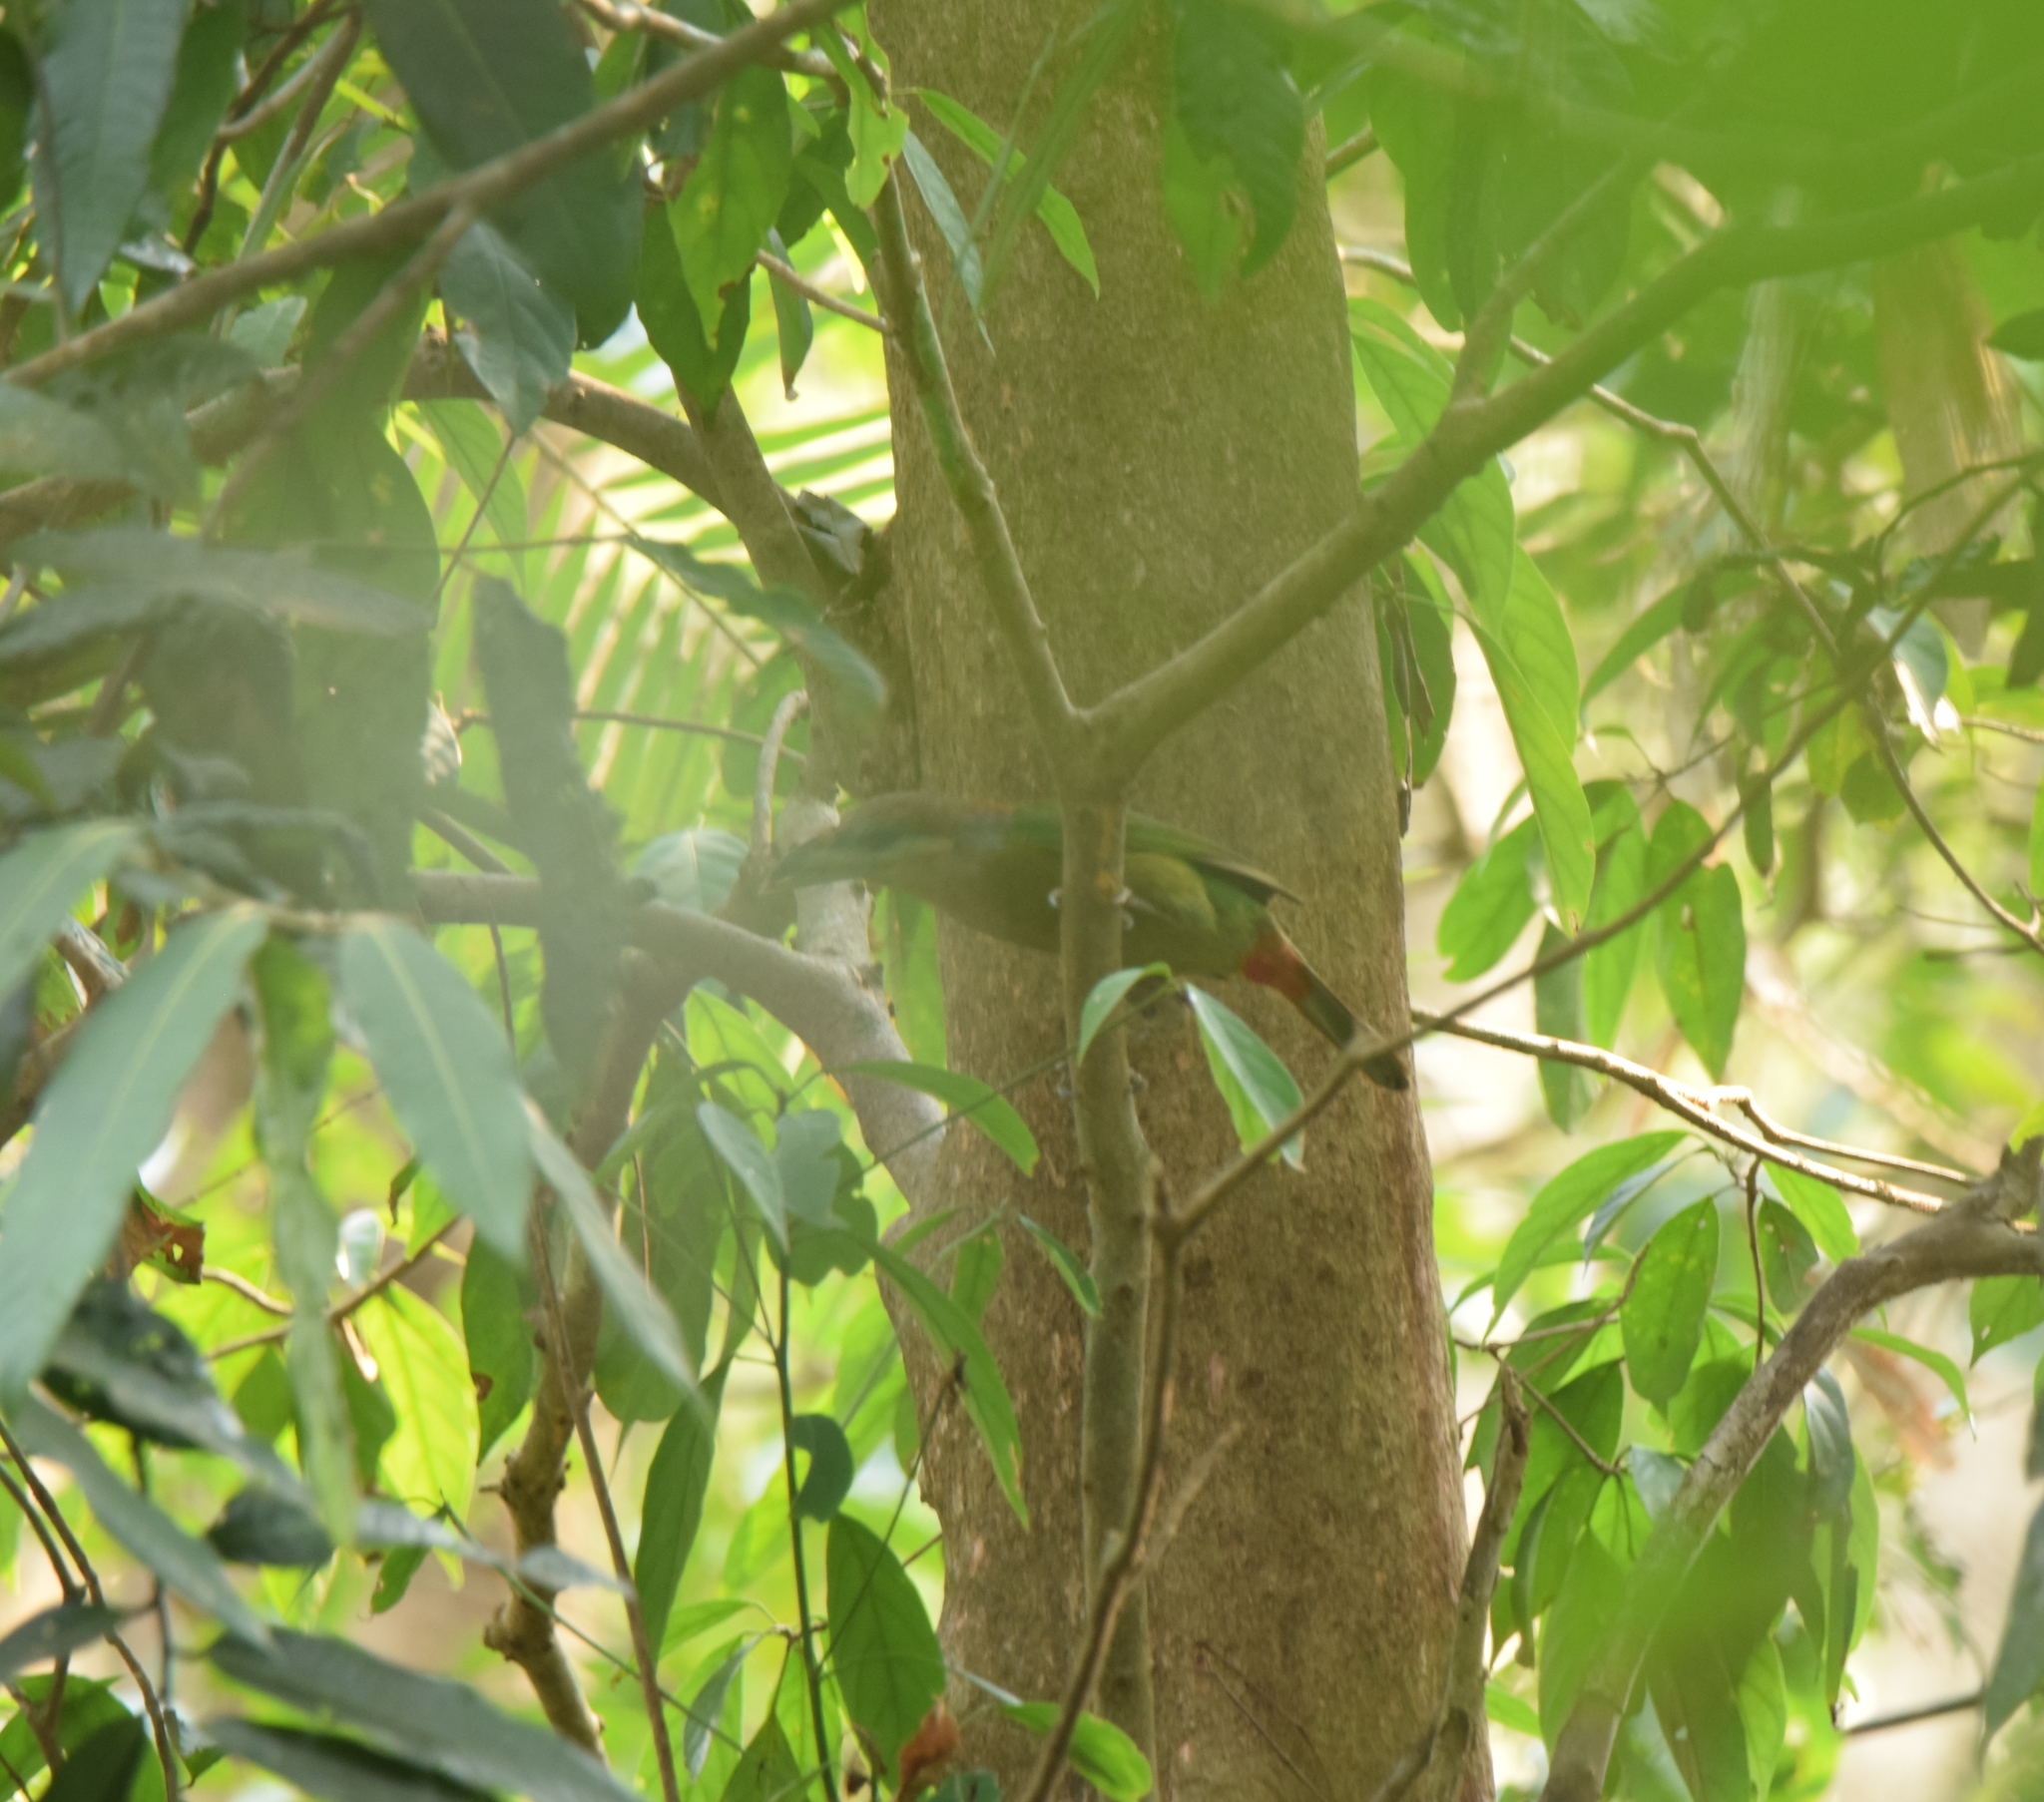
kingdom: Animalia
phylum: Chordata
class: Aves
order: Piciformes
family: Megalaimidae
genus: Psilopogon
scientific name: Psilopogon lagrandieri
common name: Red-vented barbet
